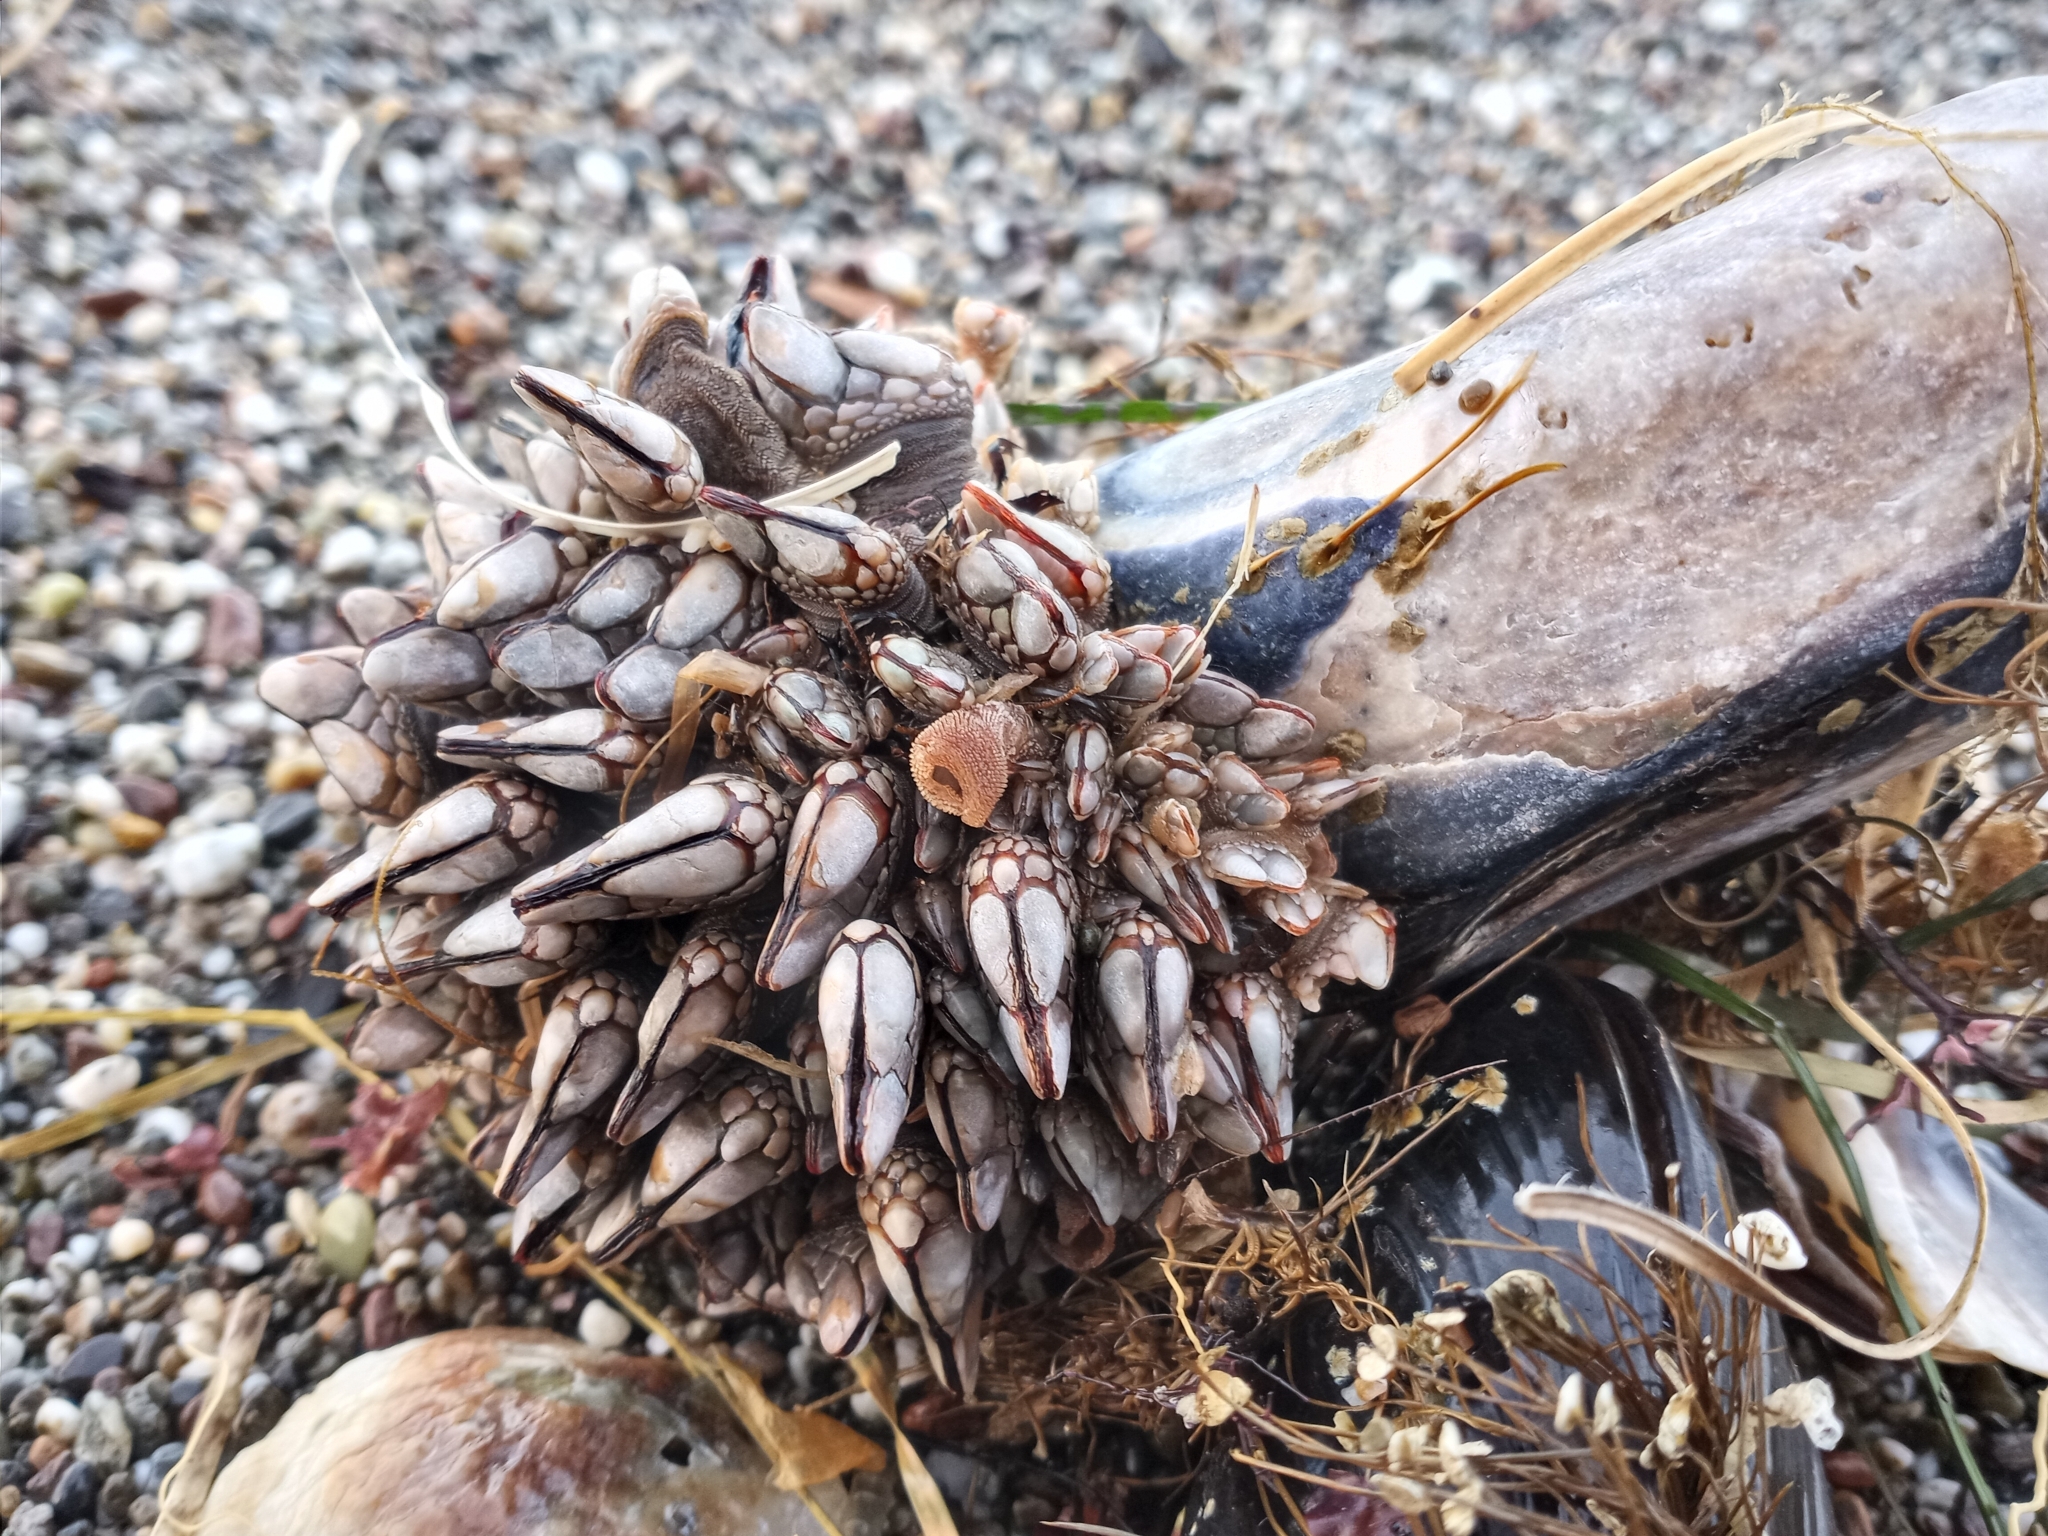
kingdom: Animalia
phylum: Arthropoda
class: Maxillopoda
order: Pedunculata
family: Pollicipedidae
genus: Pollicipes
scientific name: Pollicipes polymerus
